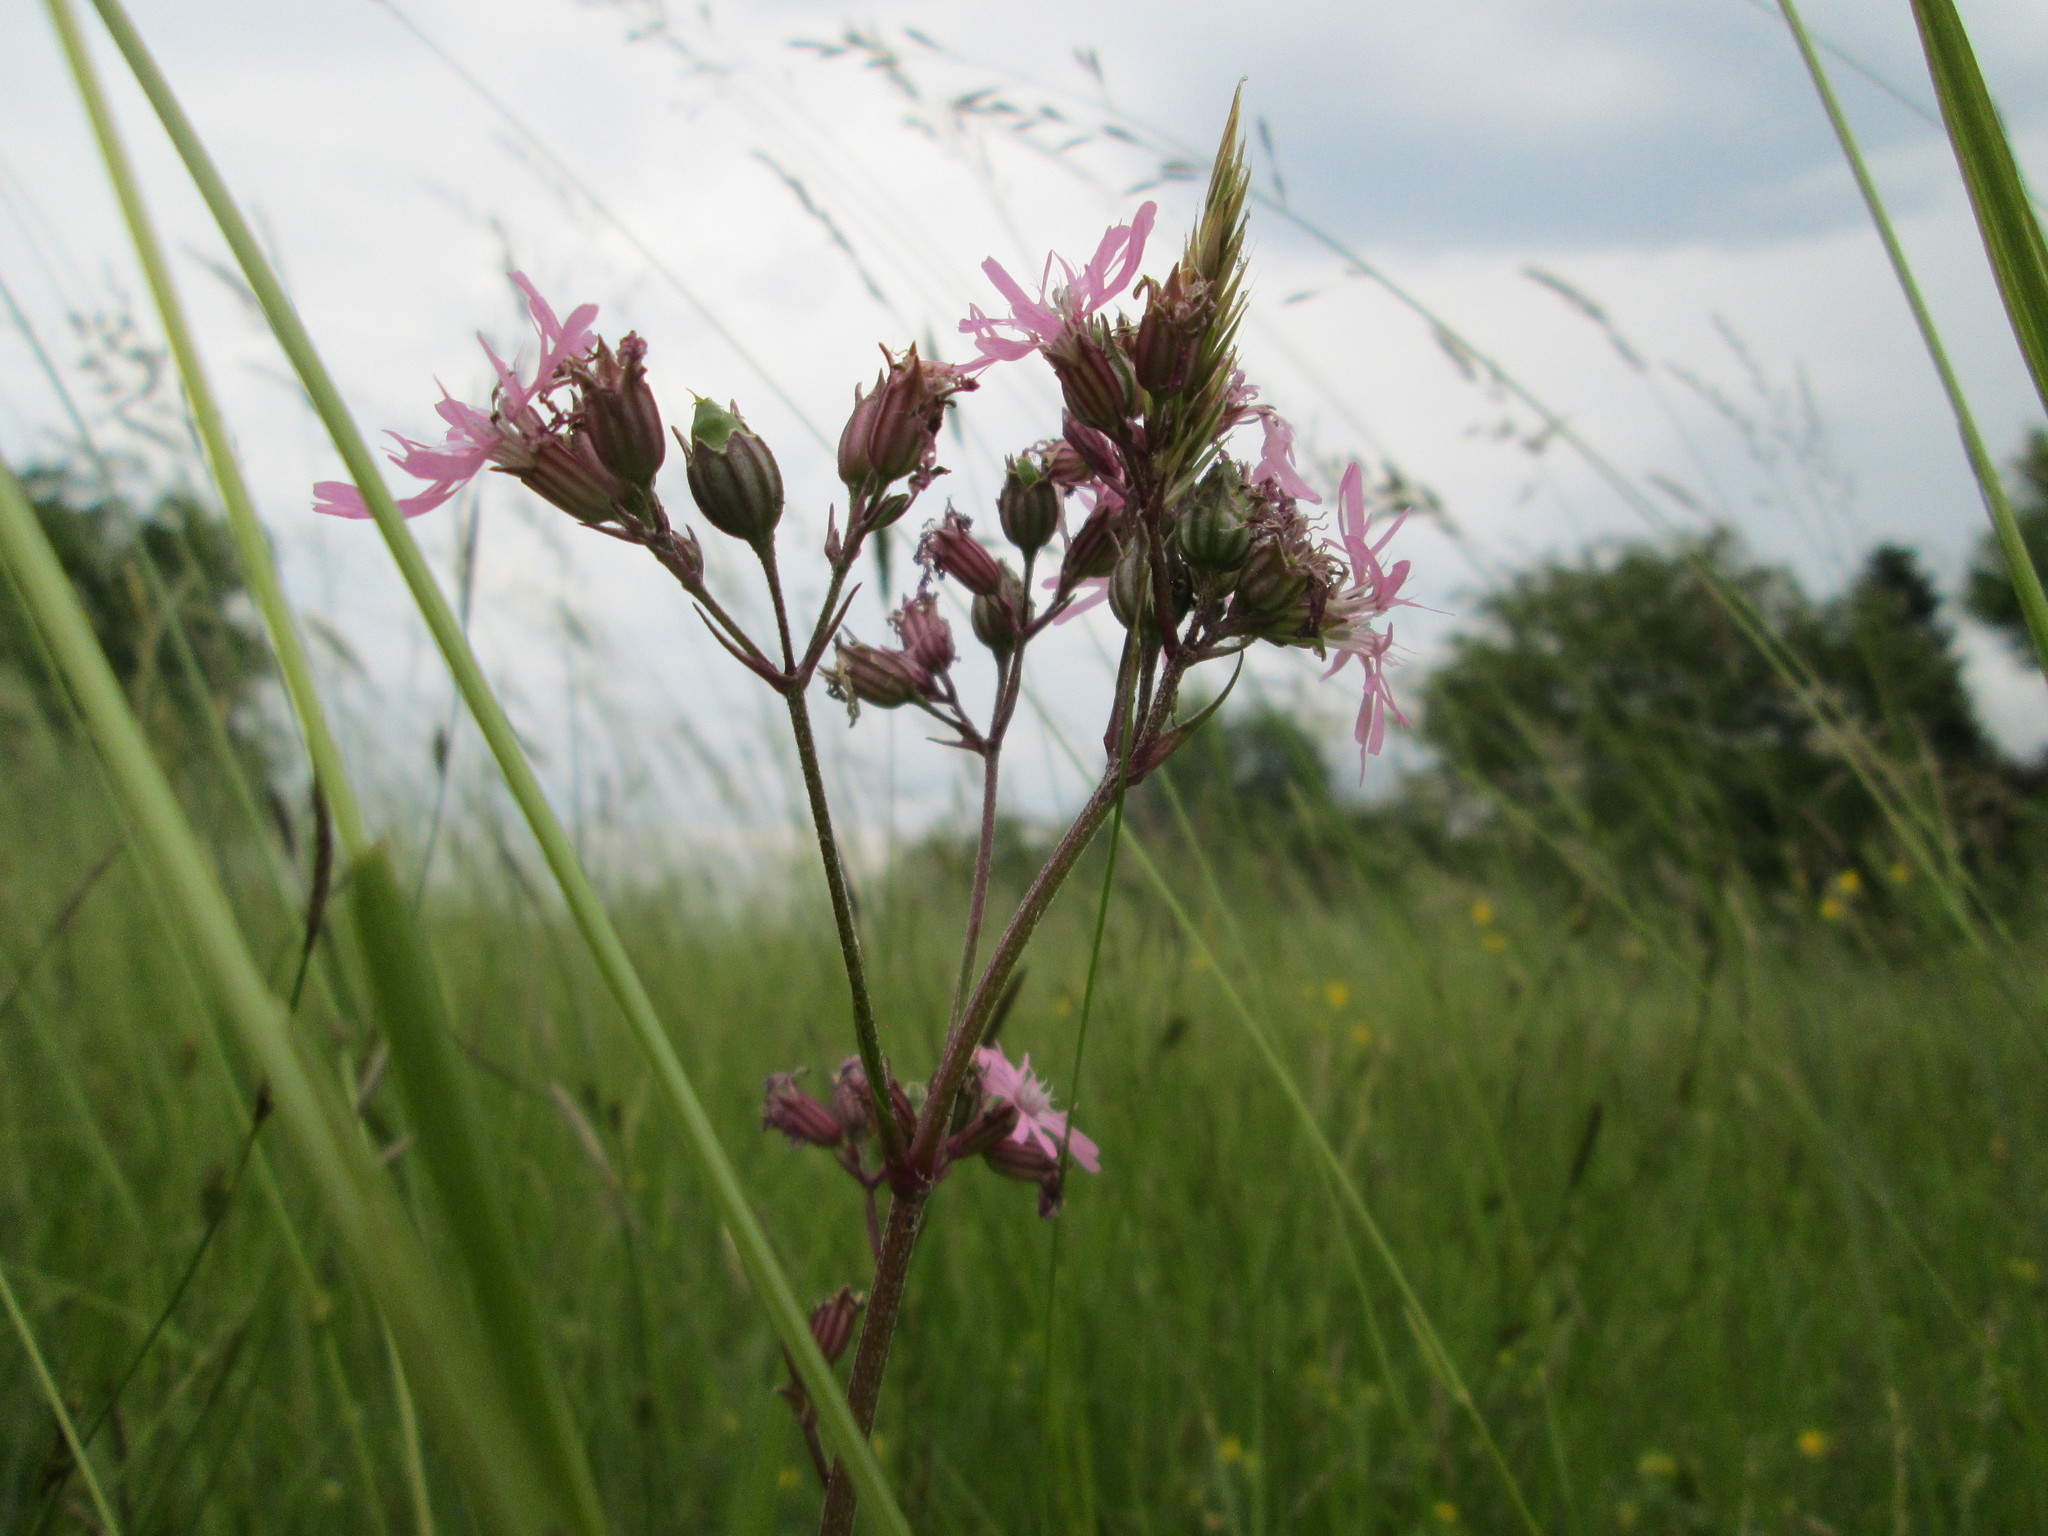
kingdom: Plantae
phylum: Tracheophyta
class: Magnoliopsida
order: Caryophyllales
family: Caryophyllaceae
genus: Silene
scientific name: Silene flos-cuculi
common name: Ragged-robin
